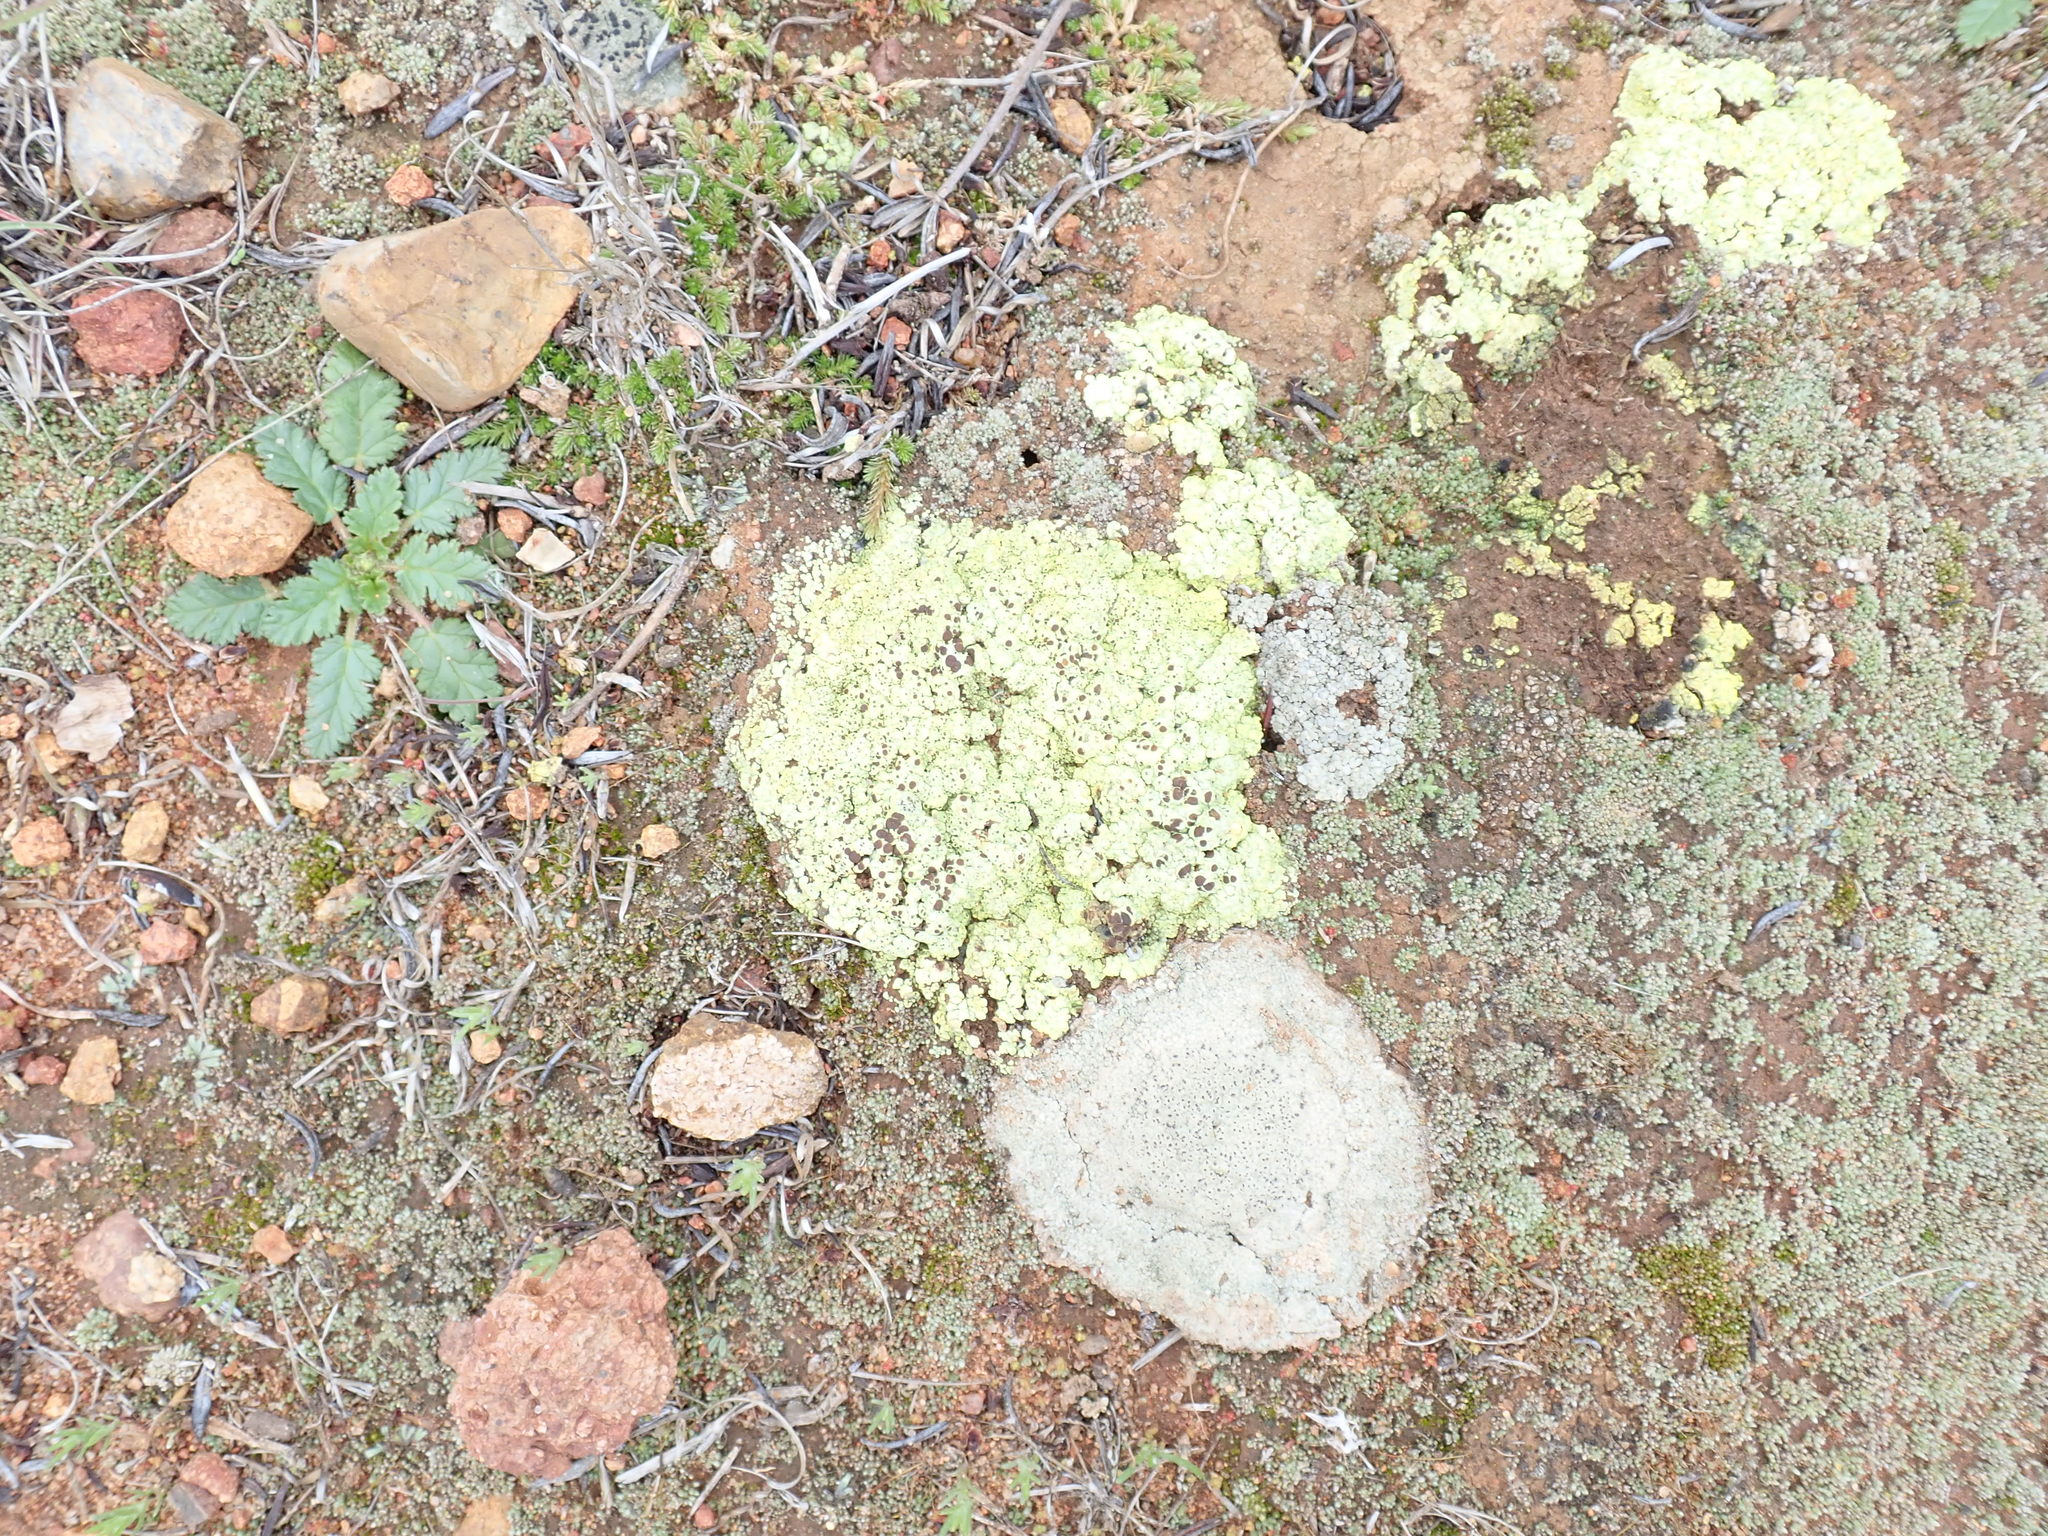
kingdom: Fungi
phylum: Ascomycota
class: Lecanoromycetes
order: Acarosporales
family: Acarosporaceae
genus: Acarospora
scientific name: Acarospora schleicheri
